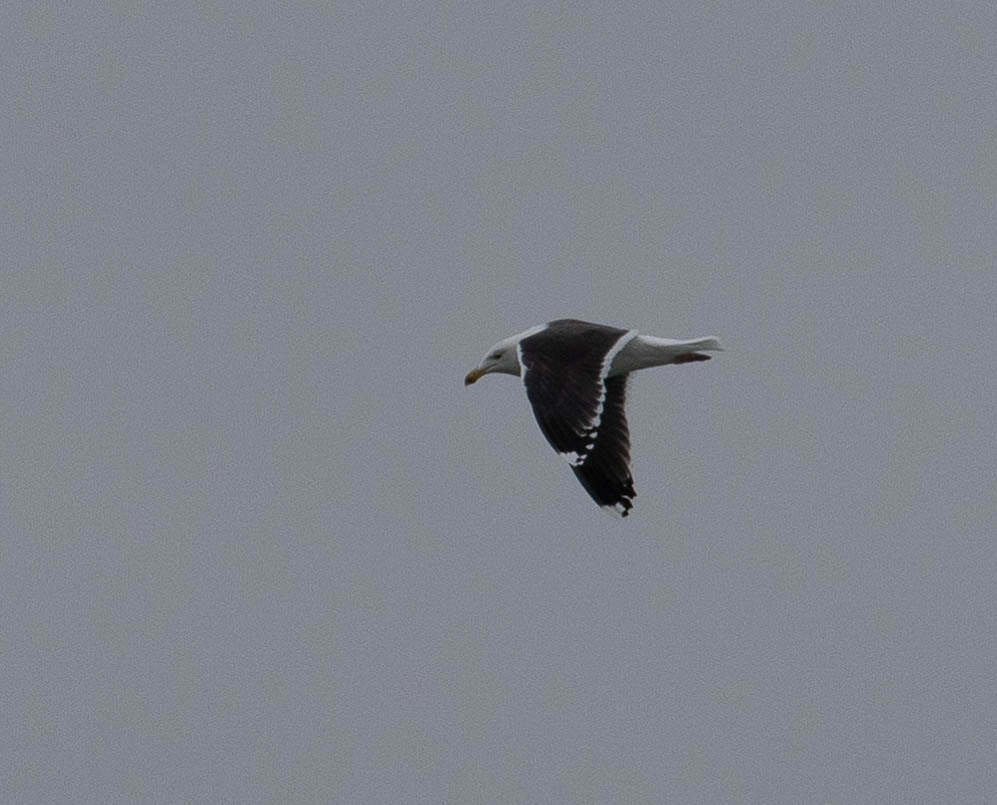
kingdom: Animalia
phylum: Chordata
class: Aves
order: Charadriiformes
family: Laridae
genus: Larus
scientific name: Larus marinus
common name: Great black-backed gull
